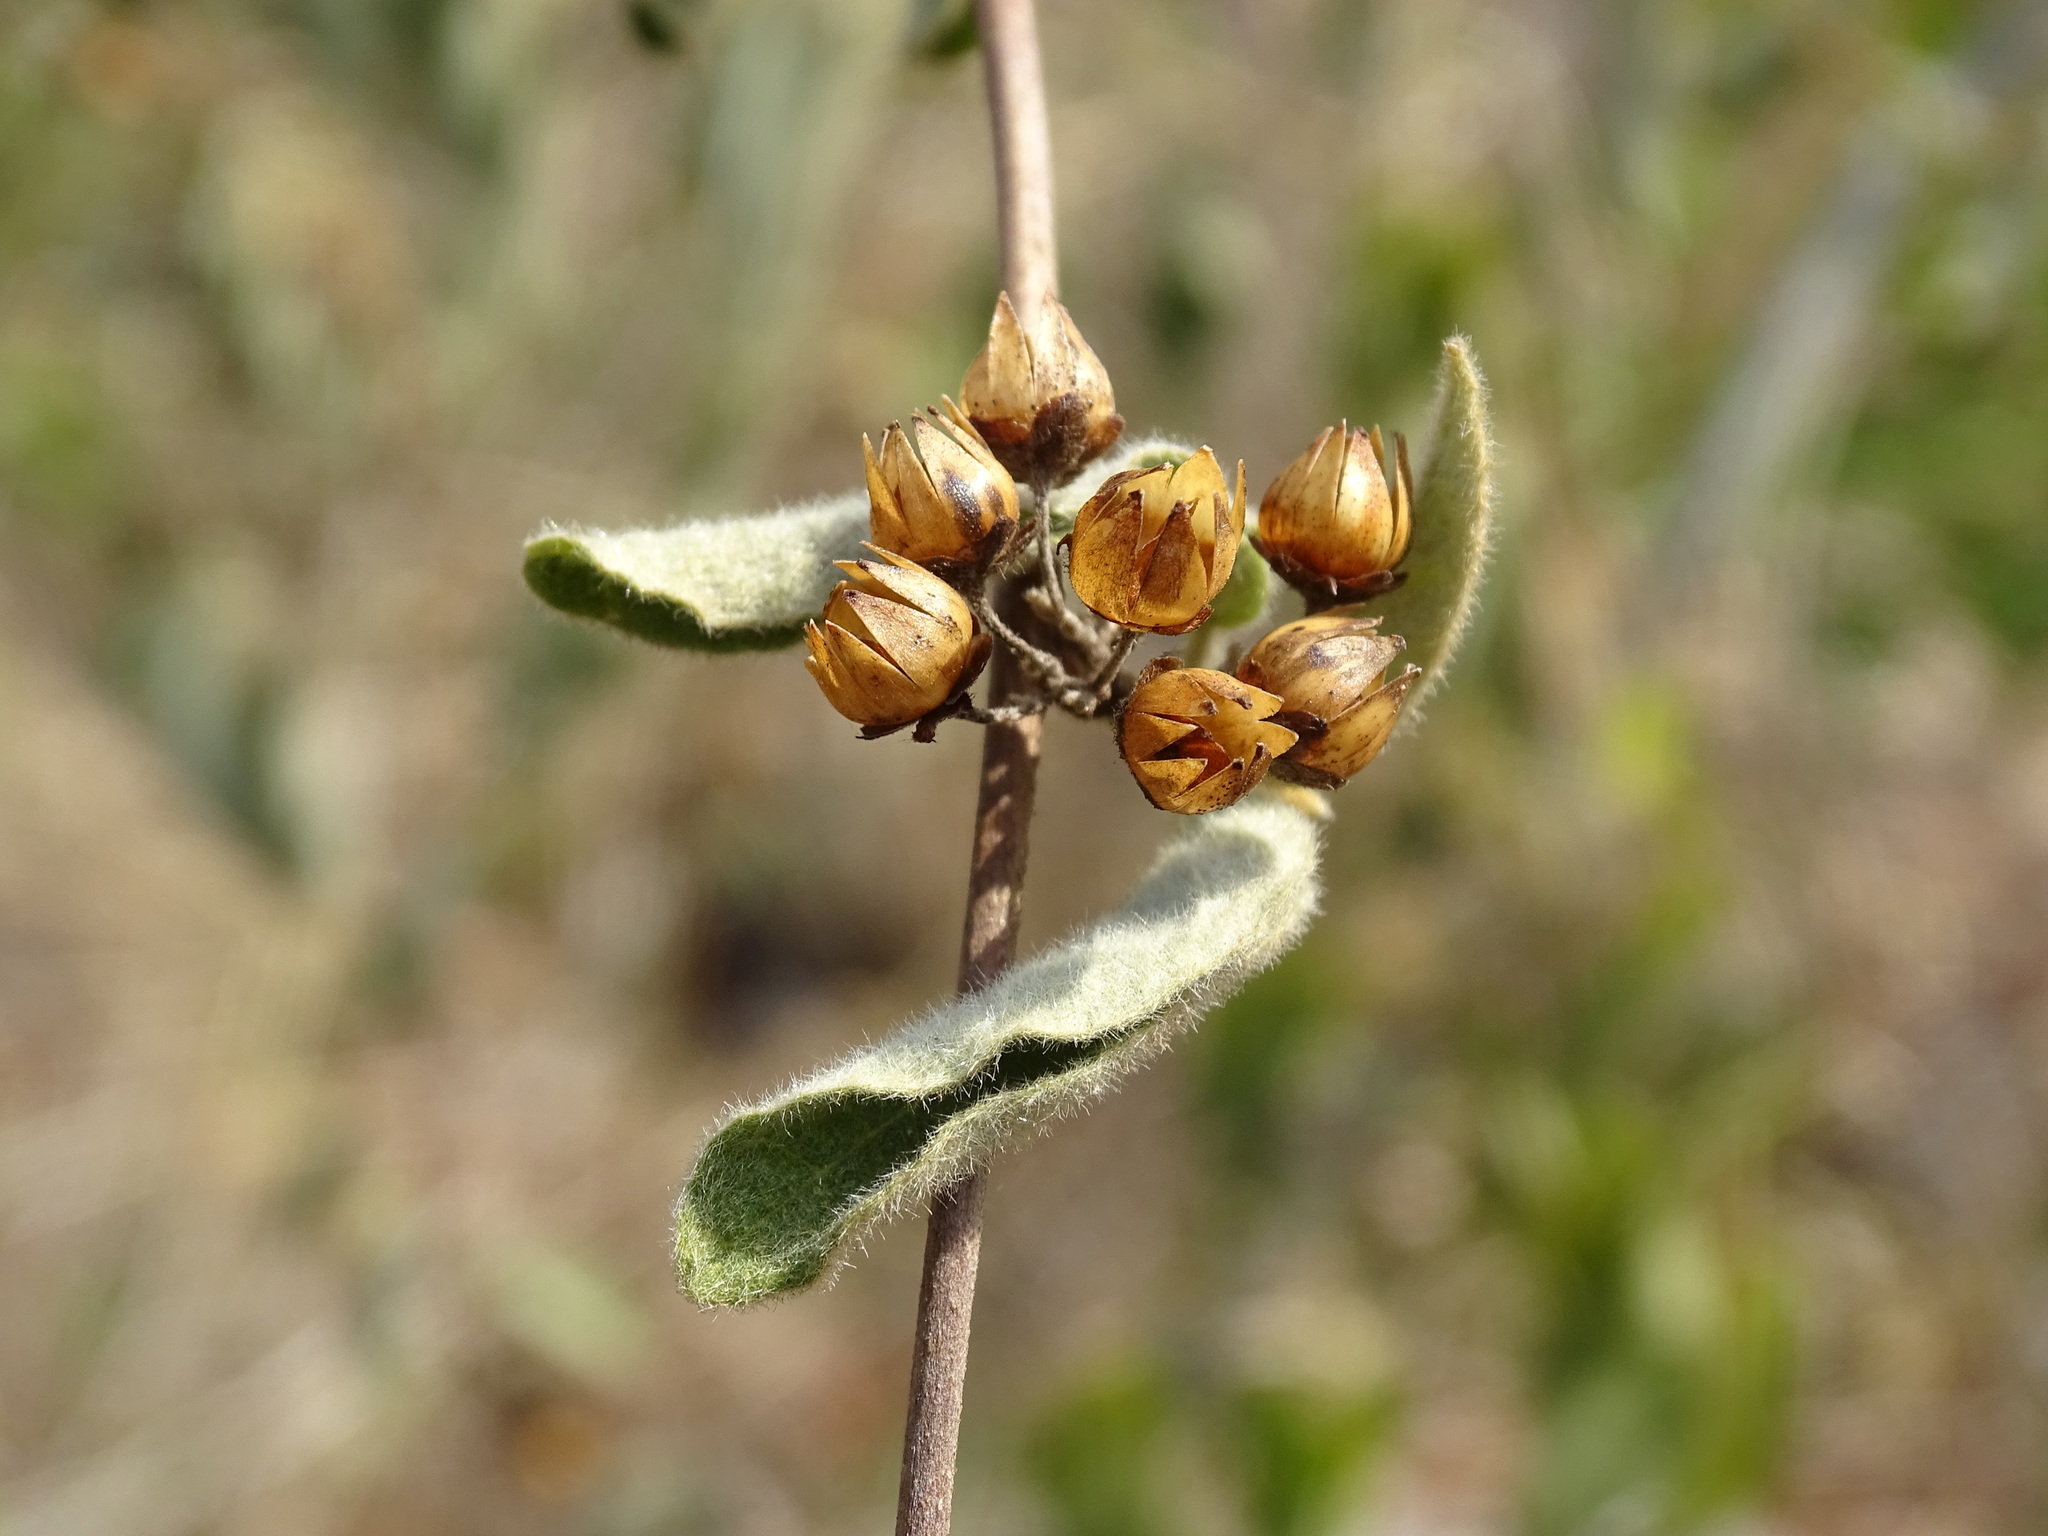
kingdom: Plantae
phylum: Tracheophyta
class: Magnoliopsida
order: Solanales
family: Convolvulaceae
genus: Jacquemontia
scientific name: Jacquemontia pentanthos
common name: Skyblue clustervine
